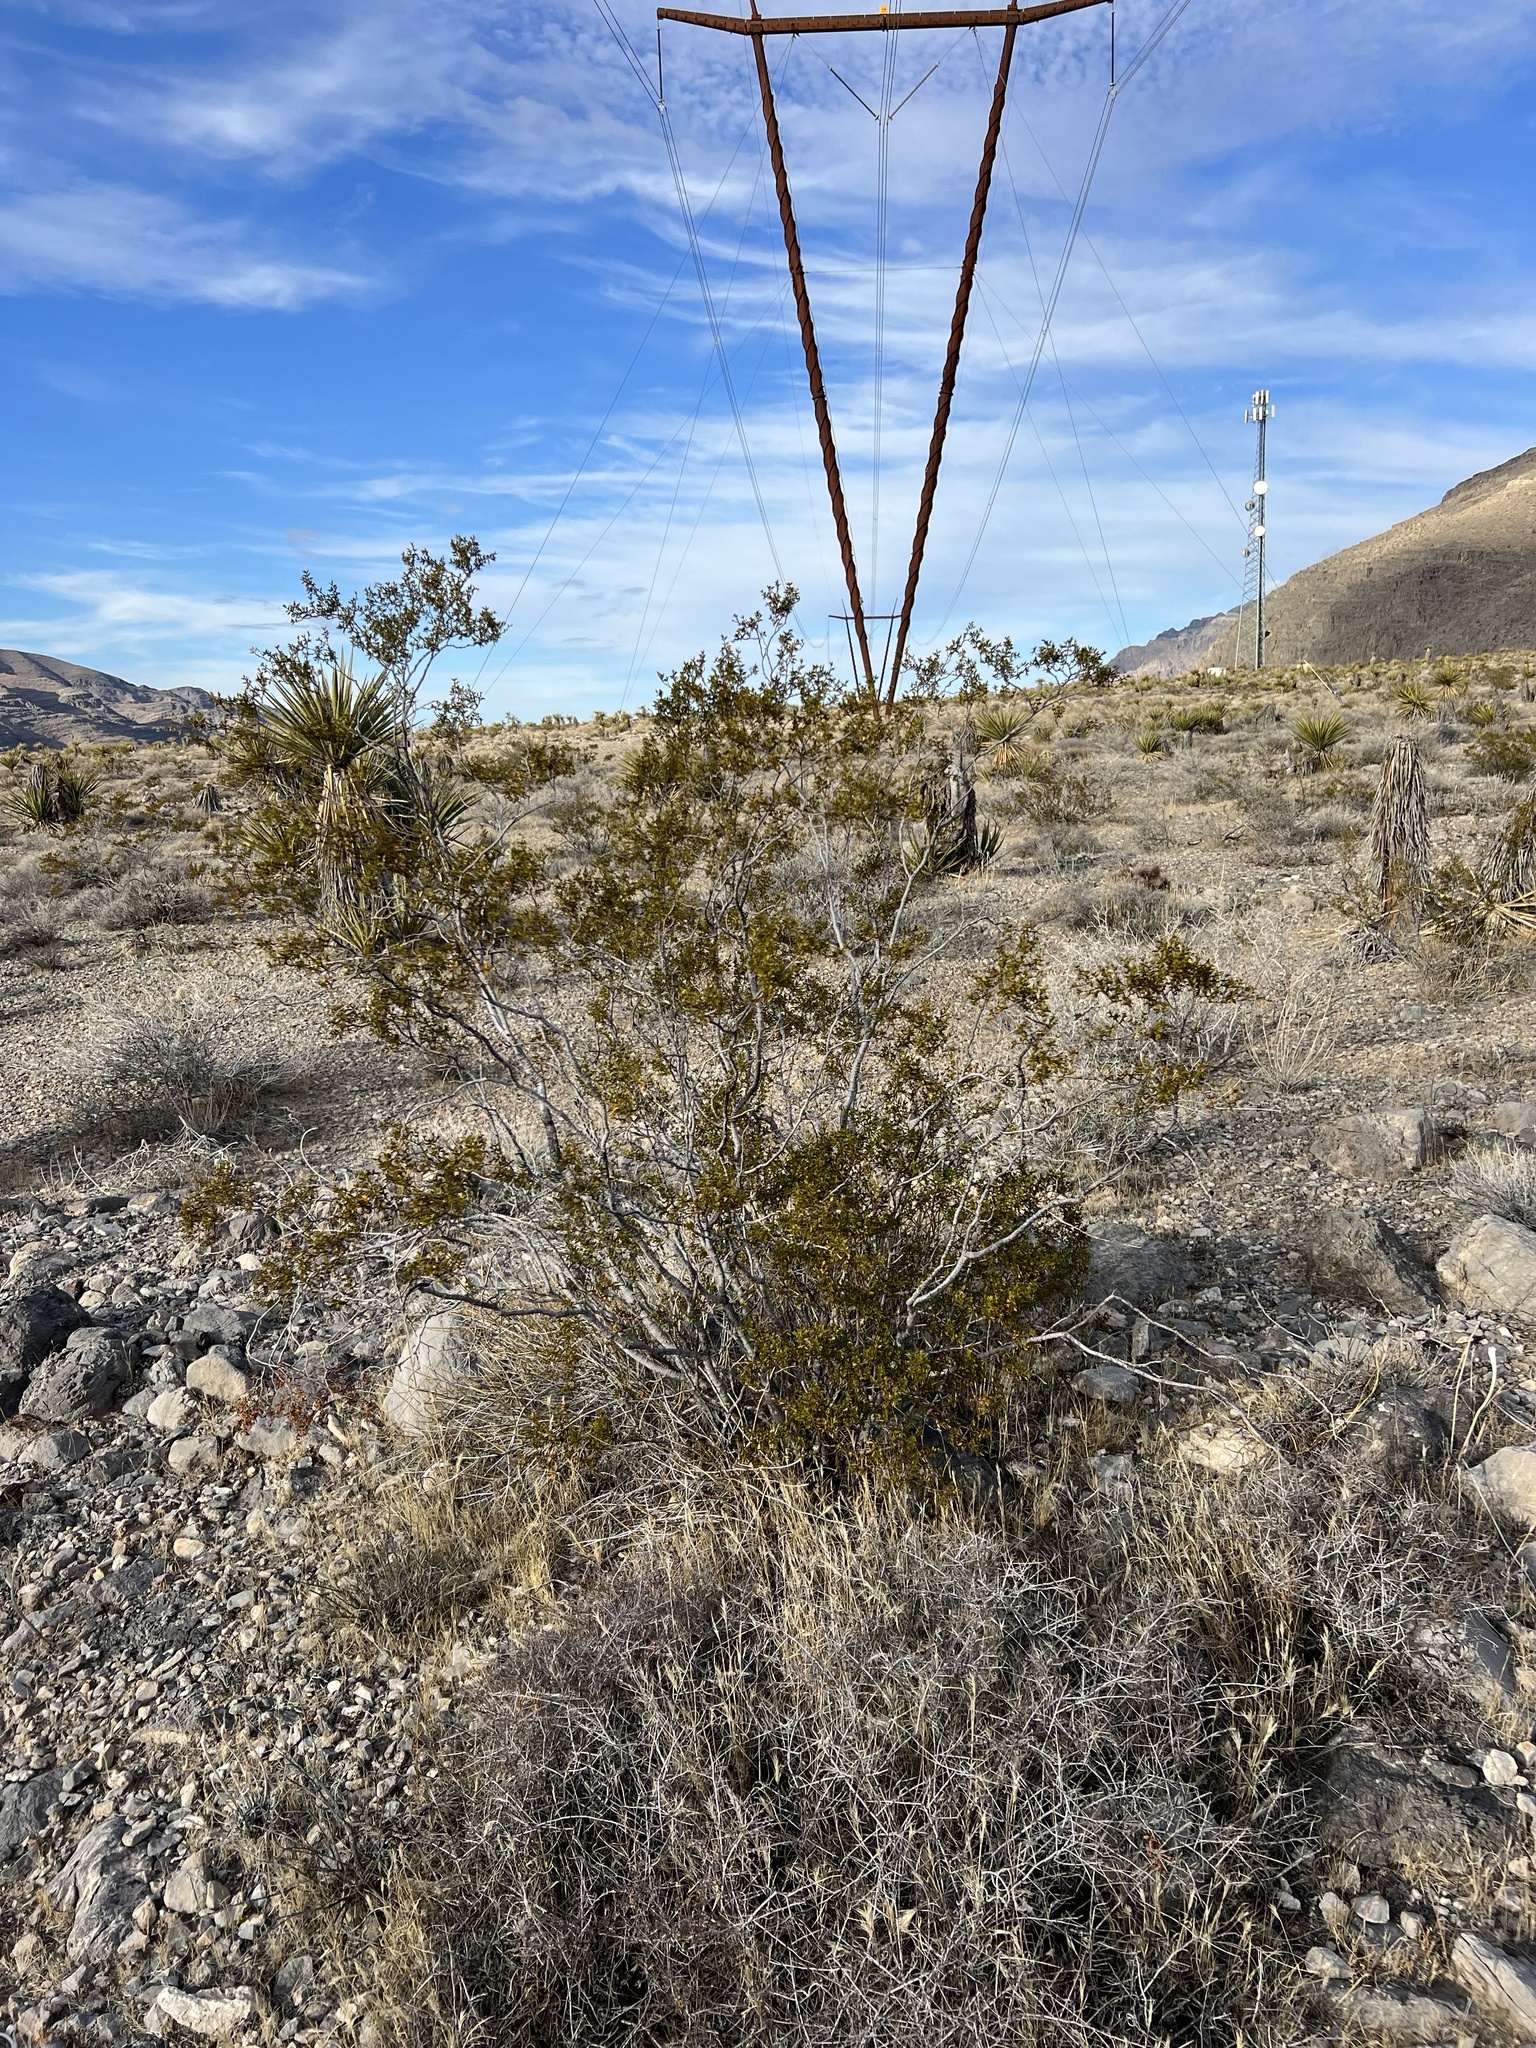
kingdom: Plantae
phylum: Tracheophyta
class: Magnoliopsida
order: Zygophyllales
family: Zygophyllaceae
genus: Larrea
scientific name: Larrea tridentata
